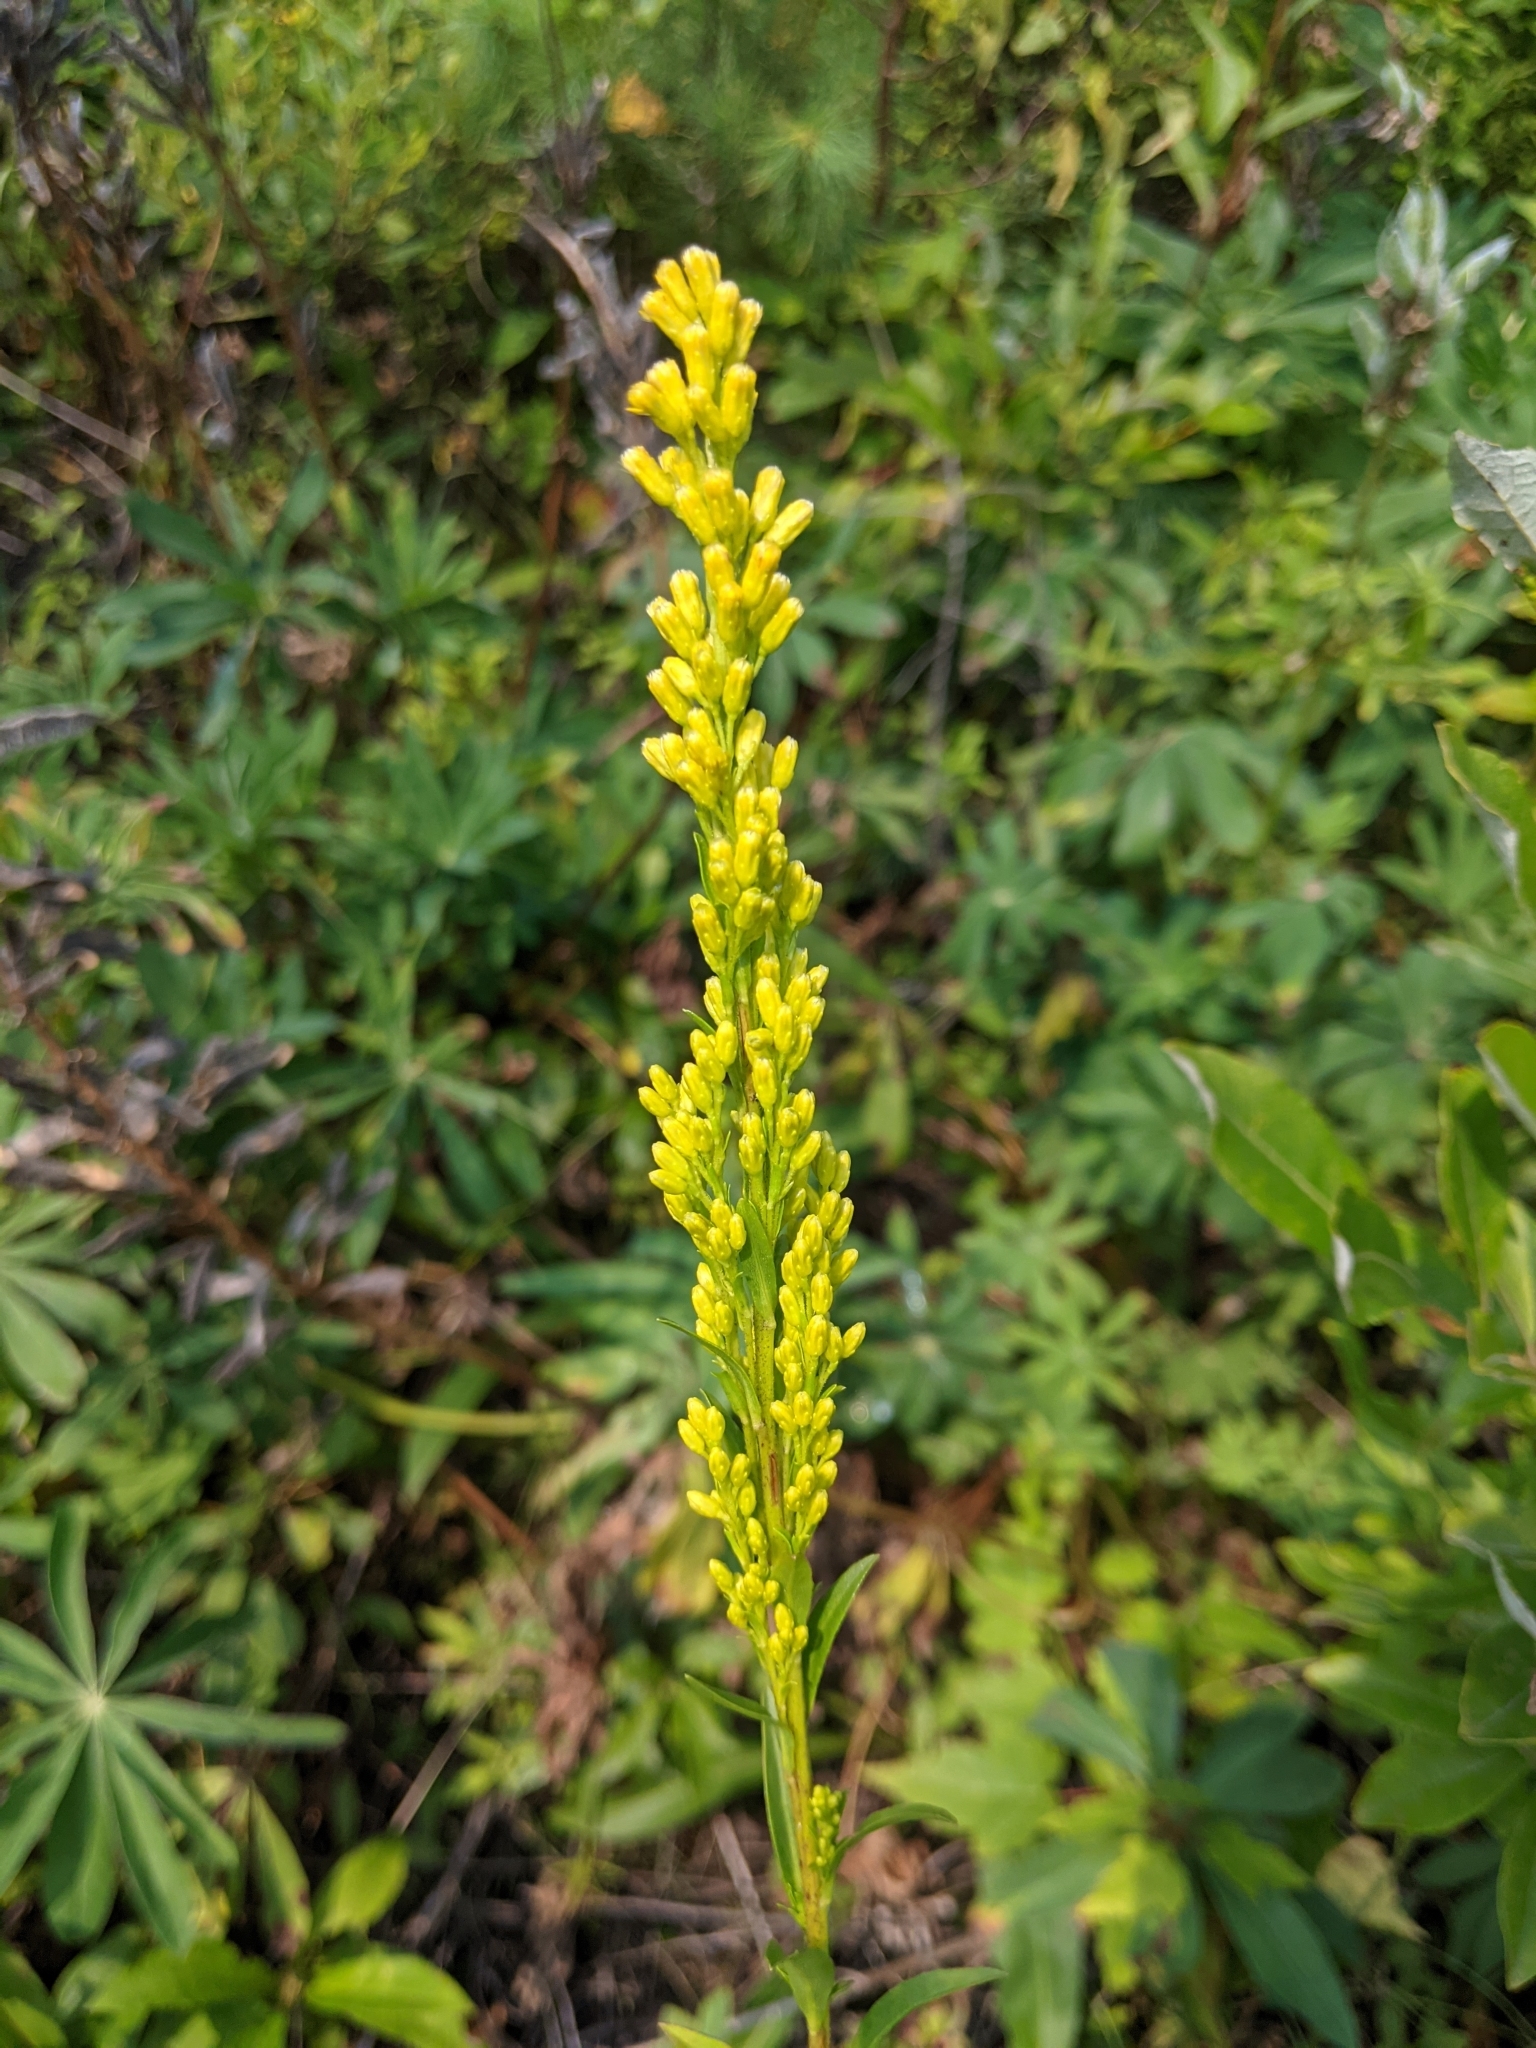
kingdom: Plantae
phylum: Tracheophyta
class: Magnoliopsida
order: Asterales
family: Asteraceae
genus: Solidago
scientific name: Solidago uliginosa
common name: Bog goldenrod
